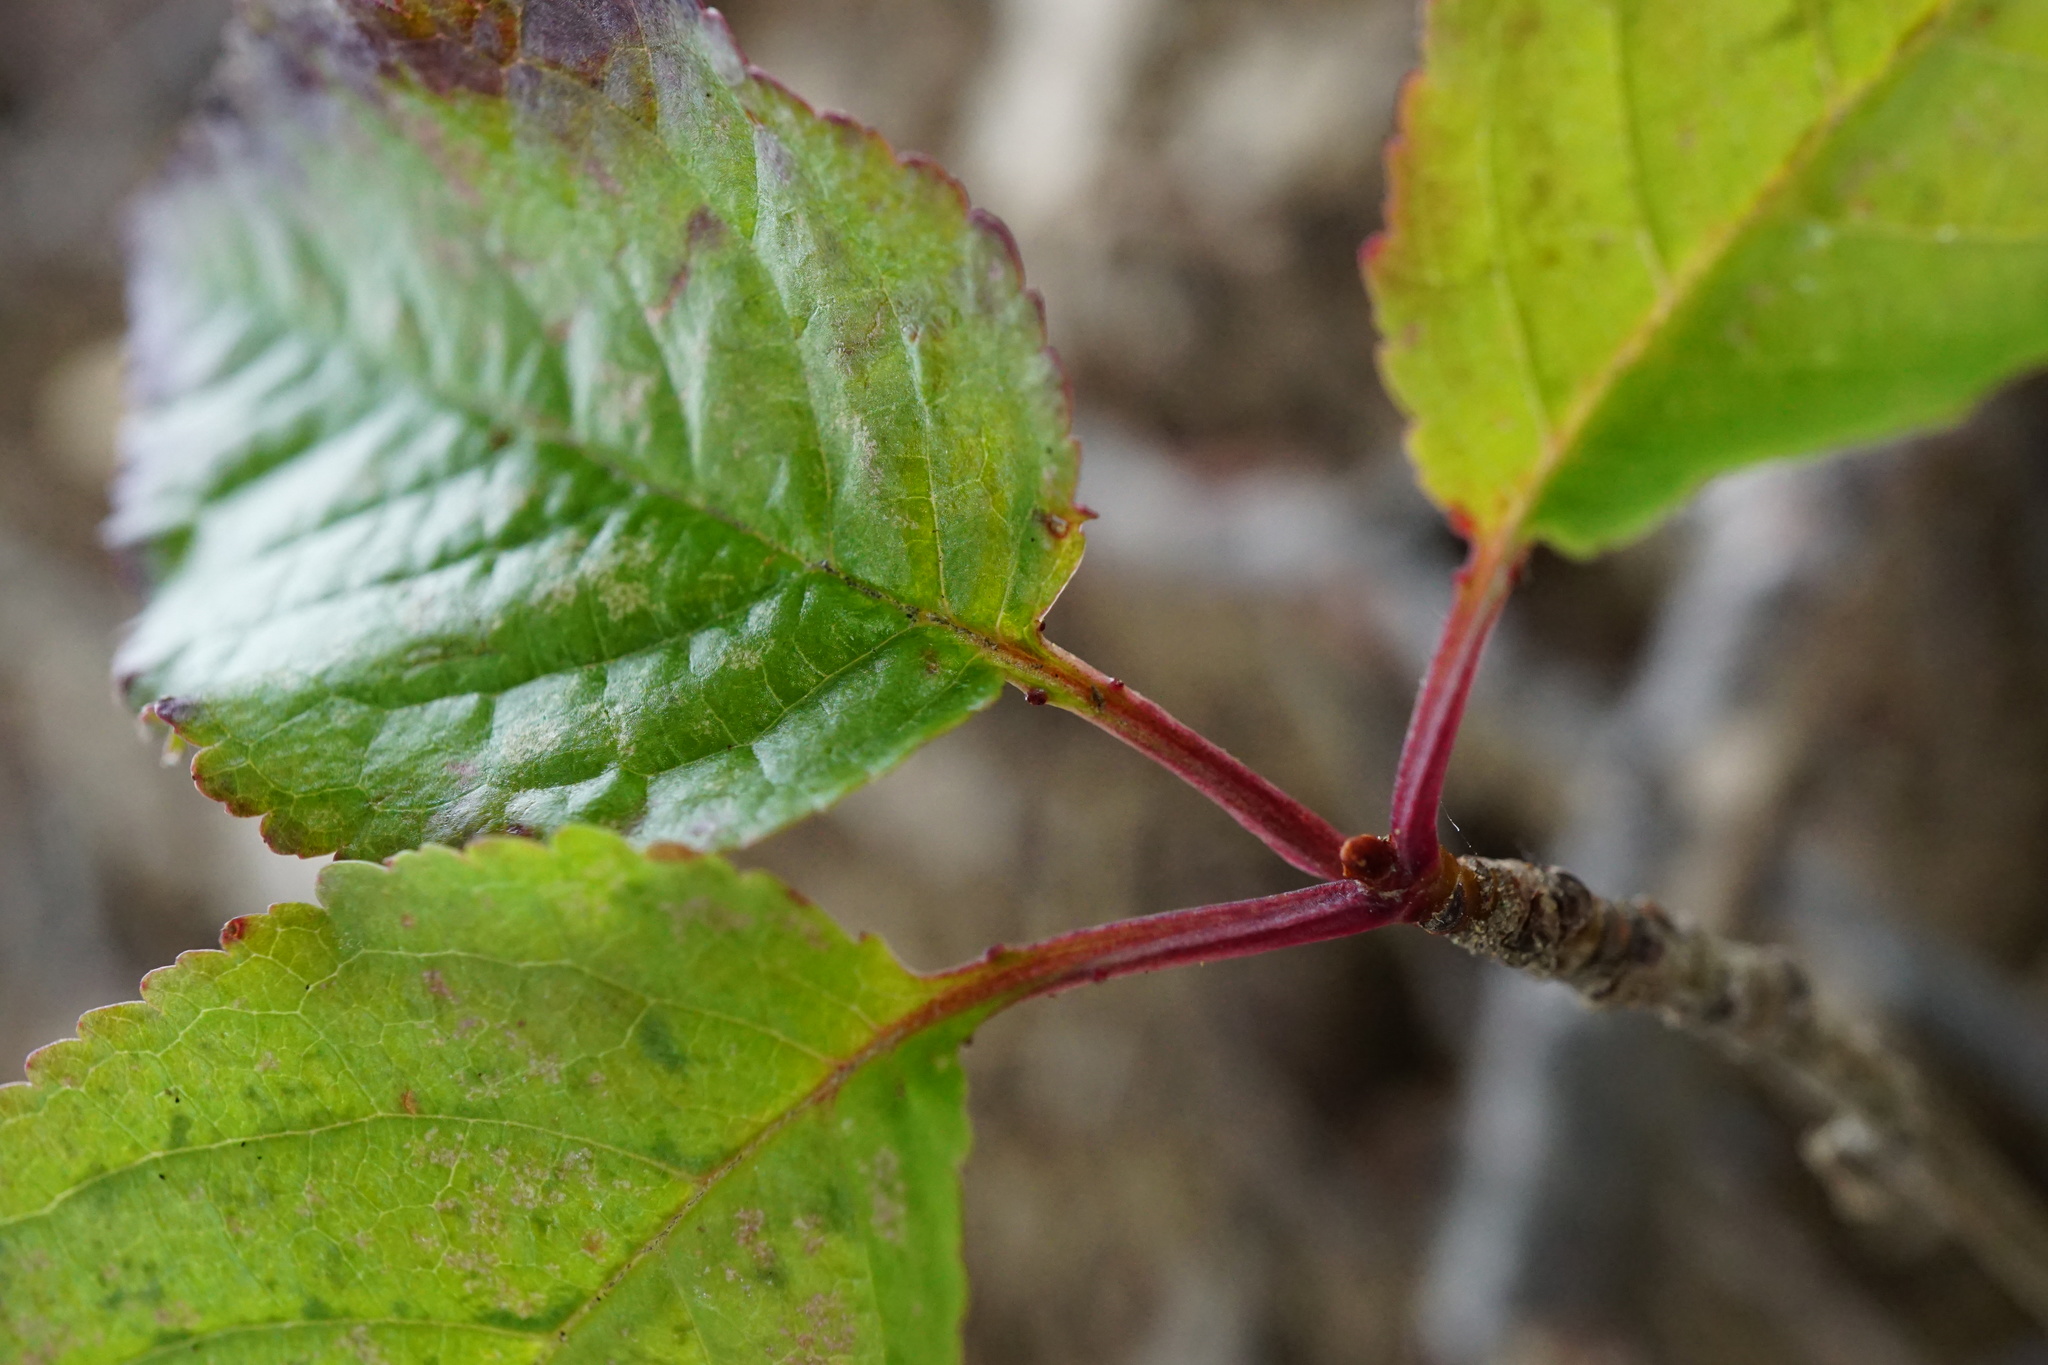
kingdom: Plantae
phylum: Tracheophyta
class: Magnoliopsida
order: Rosales
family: Rosaceae
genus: Prunus
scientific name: Prunus avium
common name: Sweet cherry
